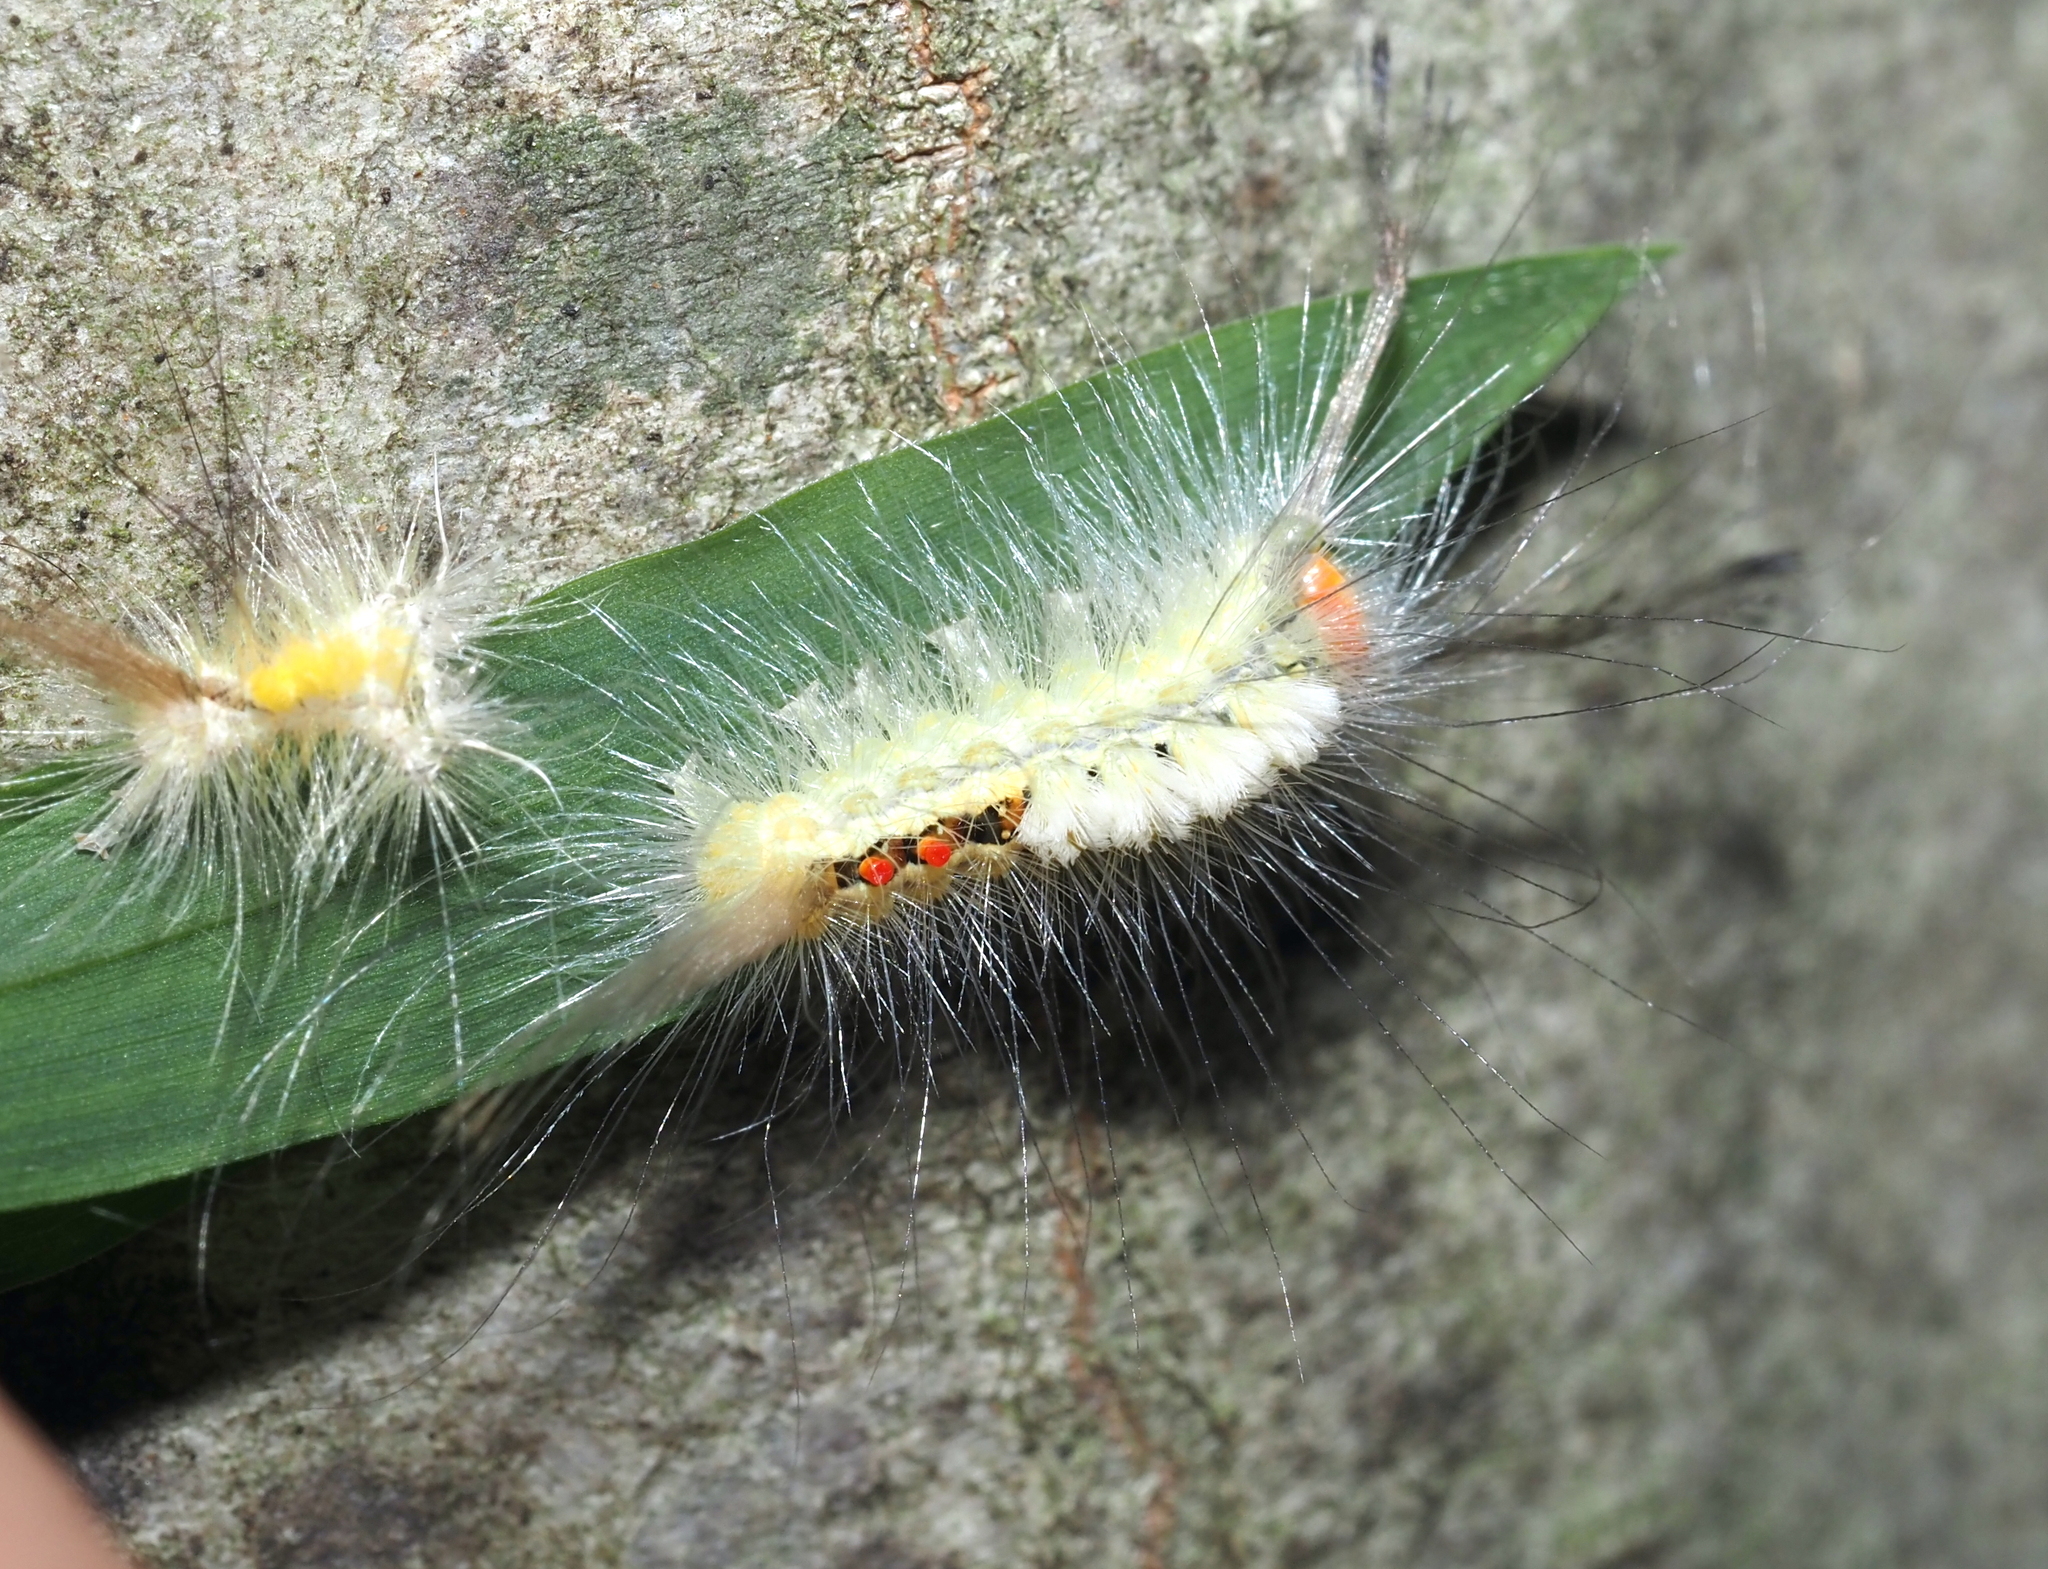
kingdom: Animalia
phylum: Arthropoda
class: Insecta
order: Lepidoptera
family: Erebidae
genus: Orgyia
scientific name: Orgyia leucostigma
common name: White-marked tussock moth
